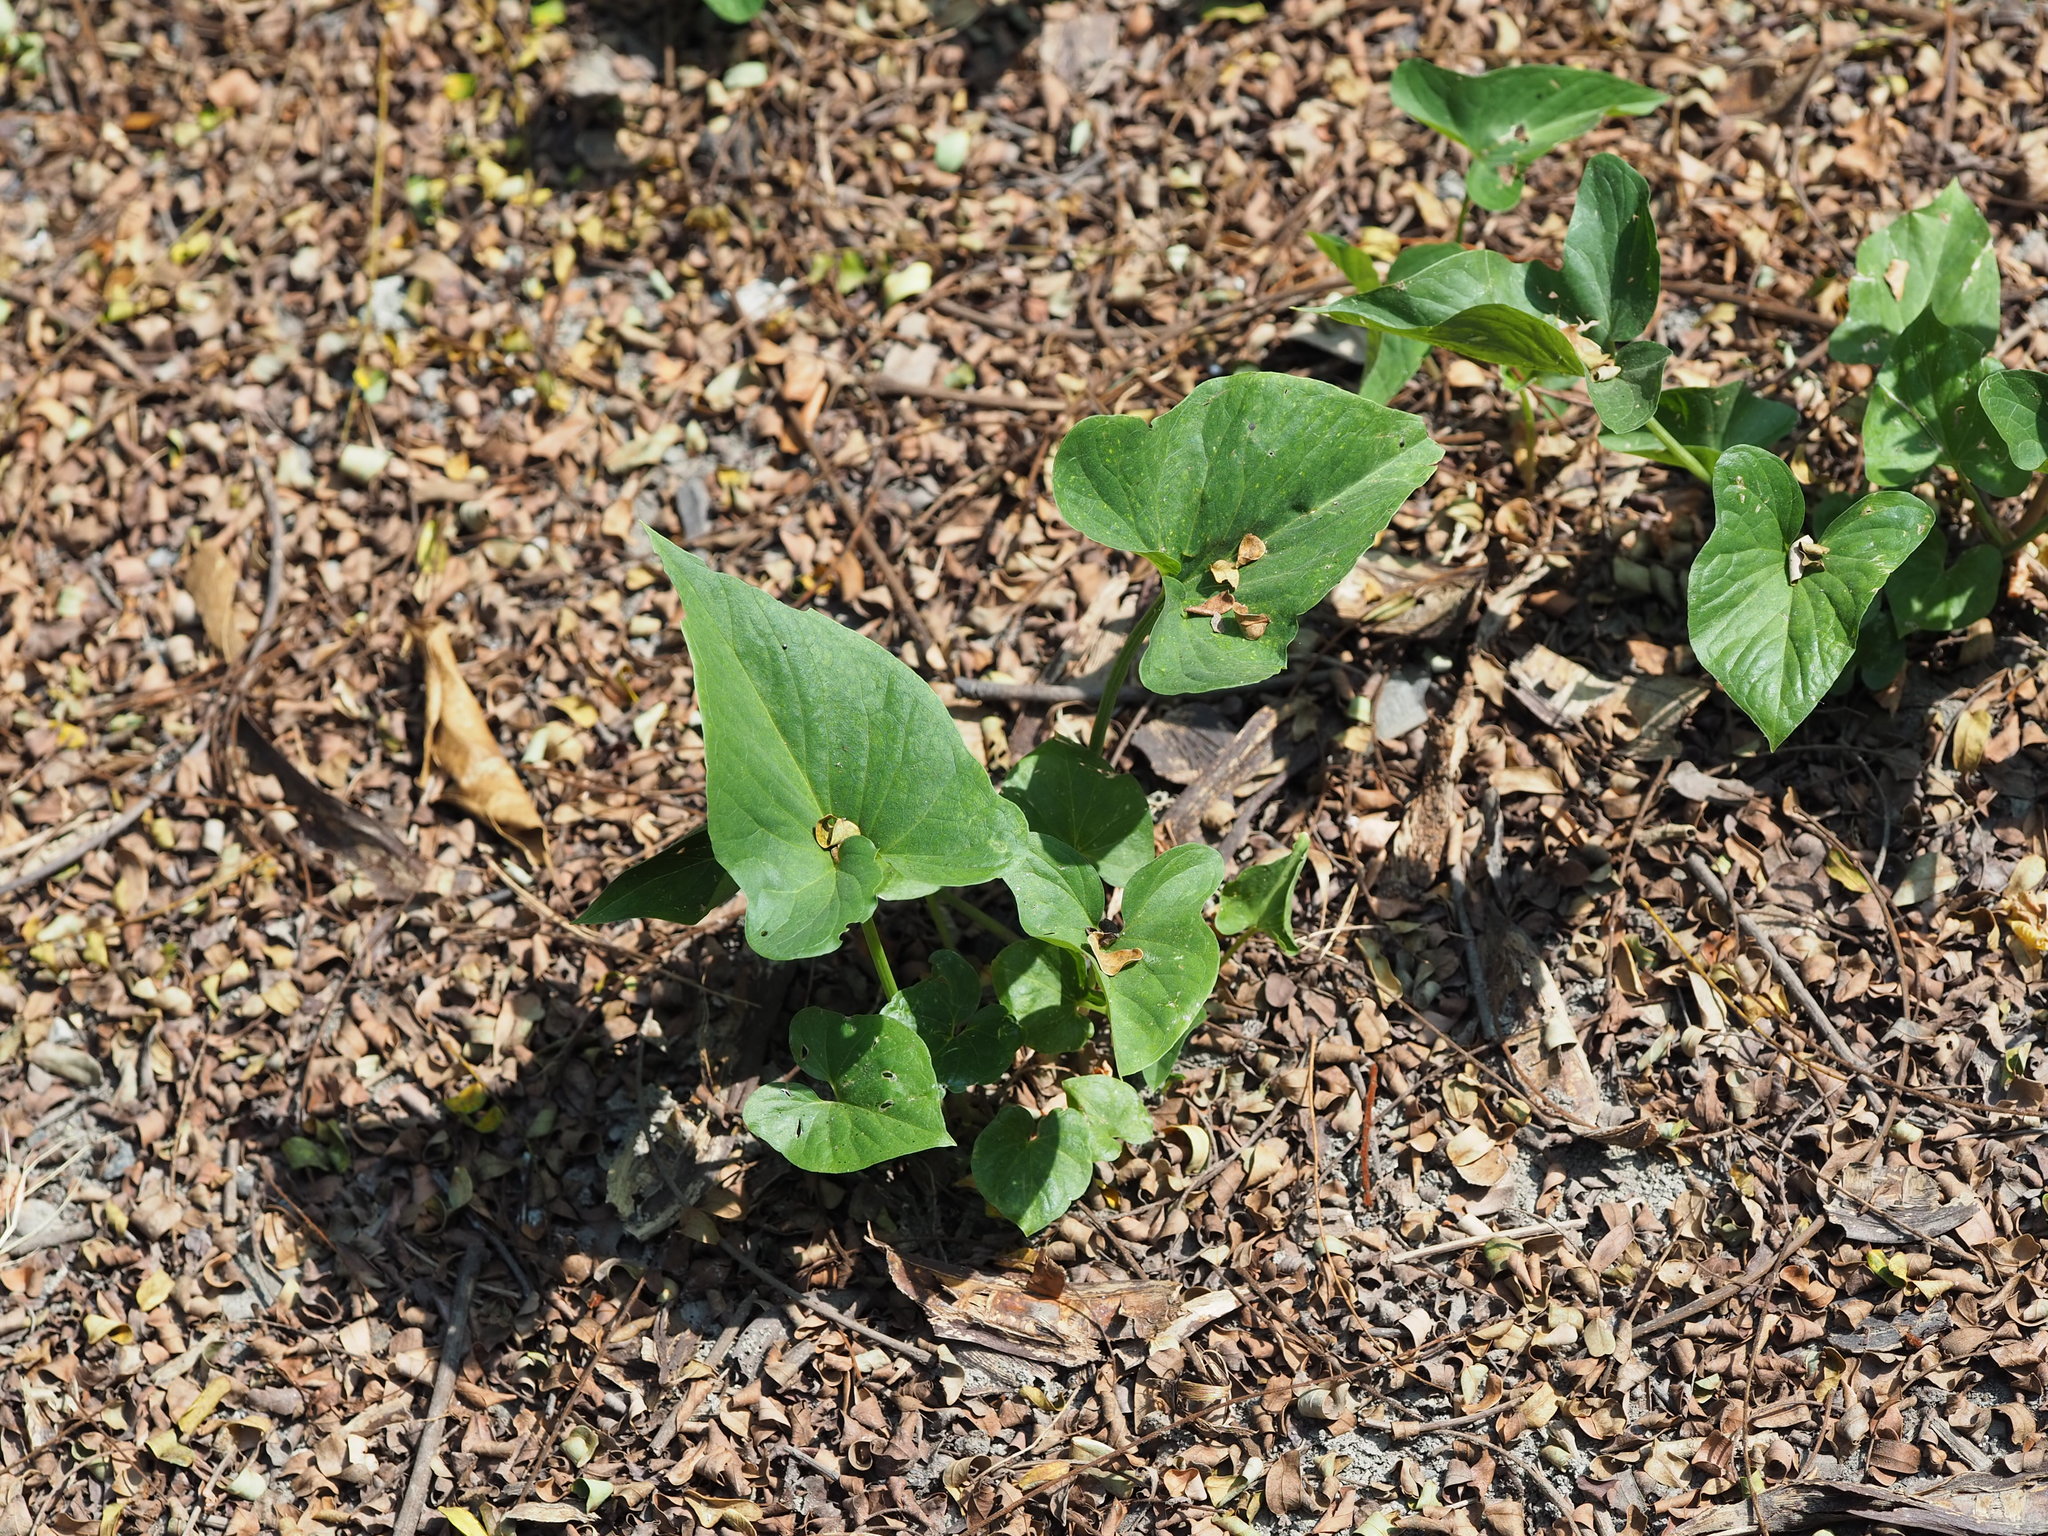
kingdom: Plantae
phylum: Tracheophyta
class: Liliopsida
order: Alismatales
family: Araceae
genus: Typhonium
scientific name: Typhonium blumei
